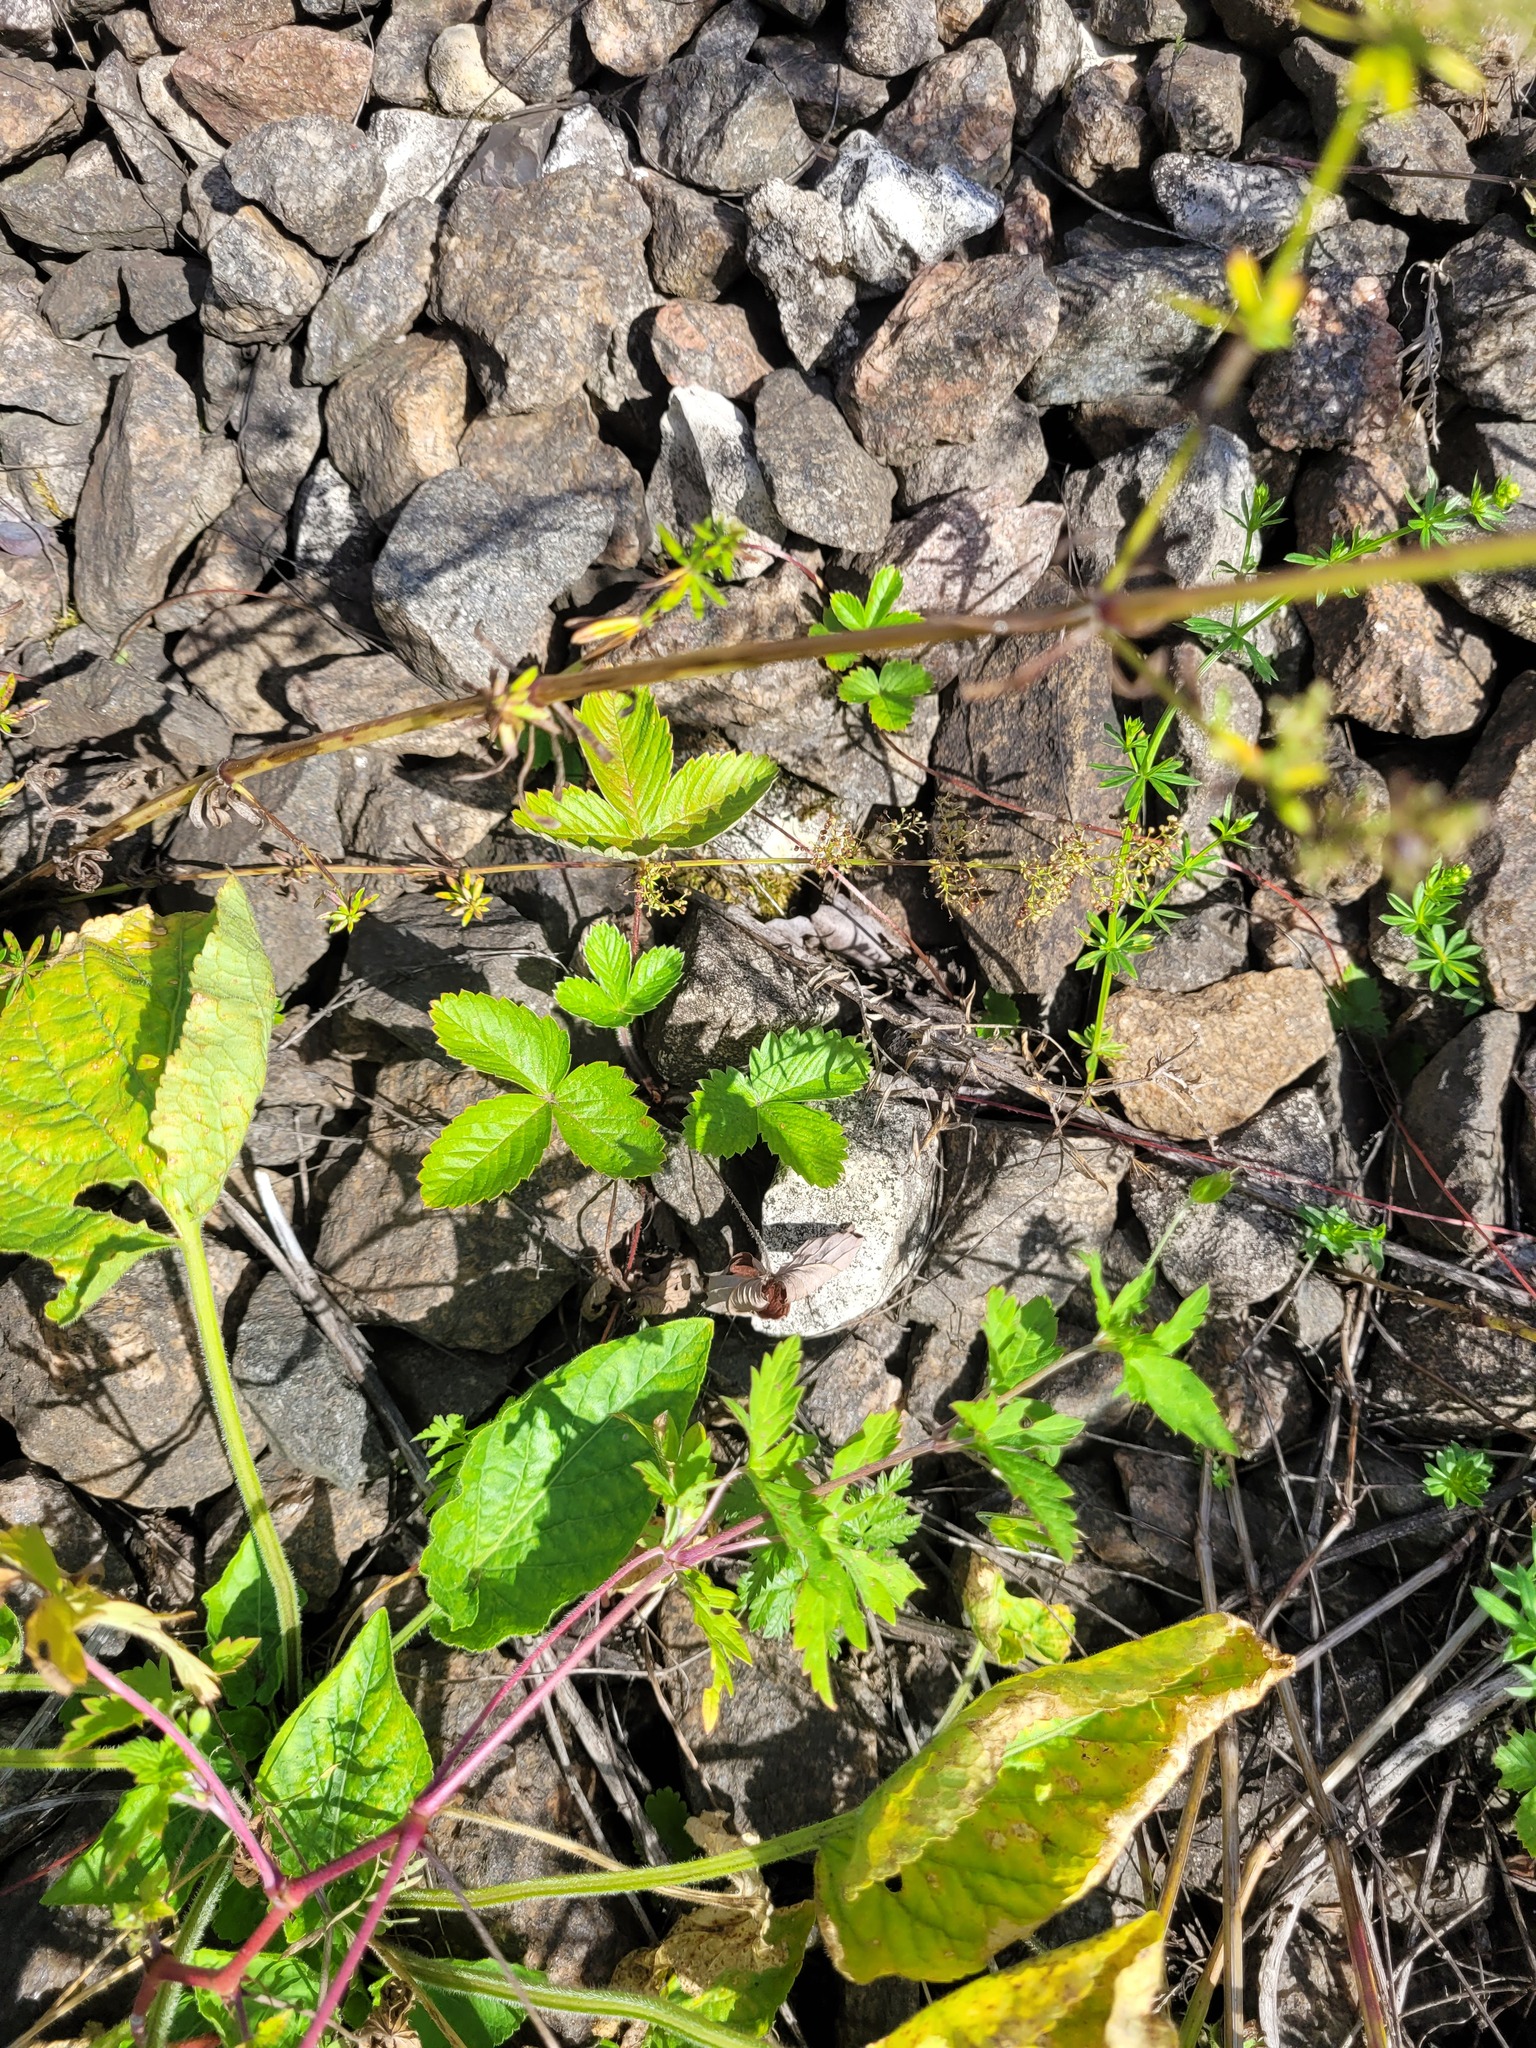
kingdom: Plantae
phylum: Tracheophyta
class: Magnoliopsida
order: Rosales
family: Rosaceae
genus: Fragaria
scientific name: Fragaria vesca
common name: Wild strawberry
